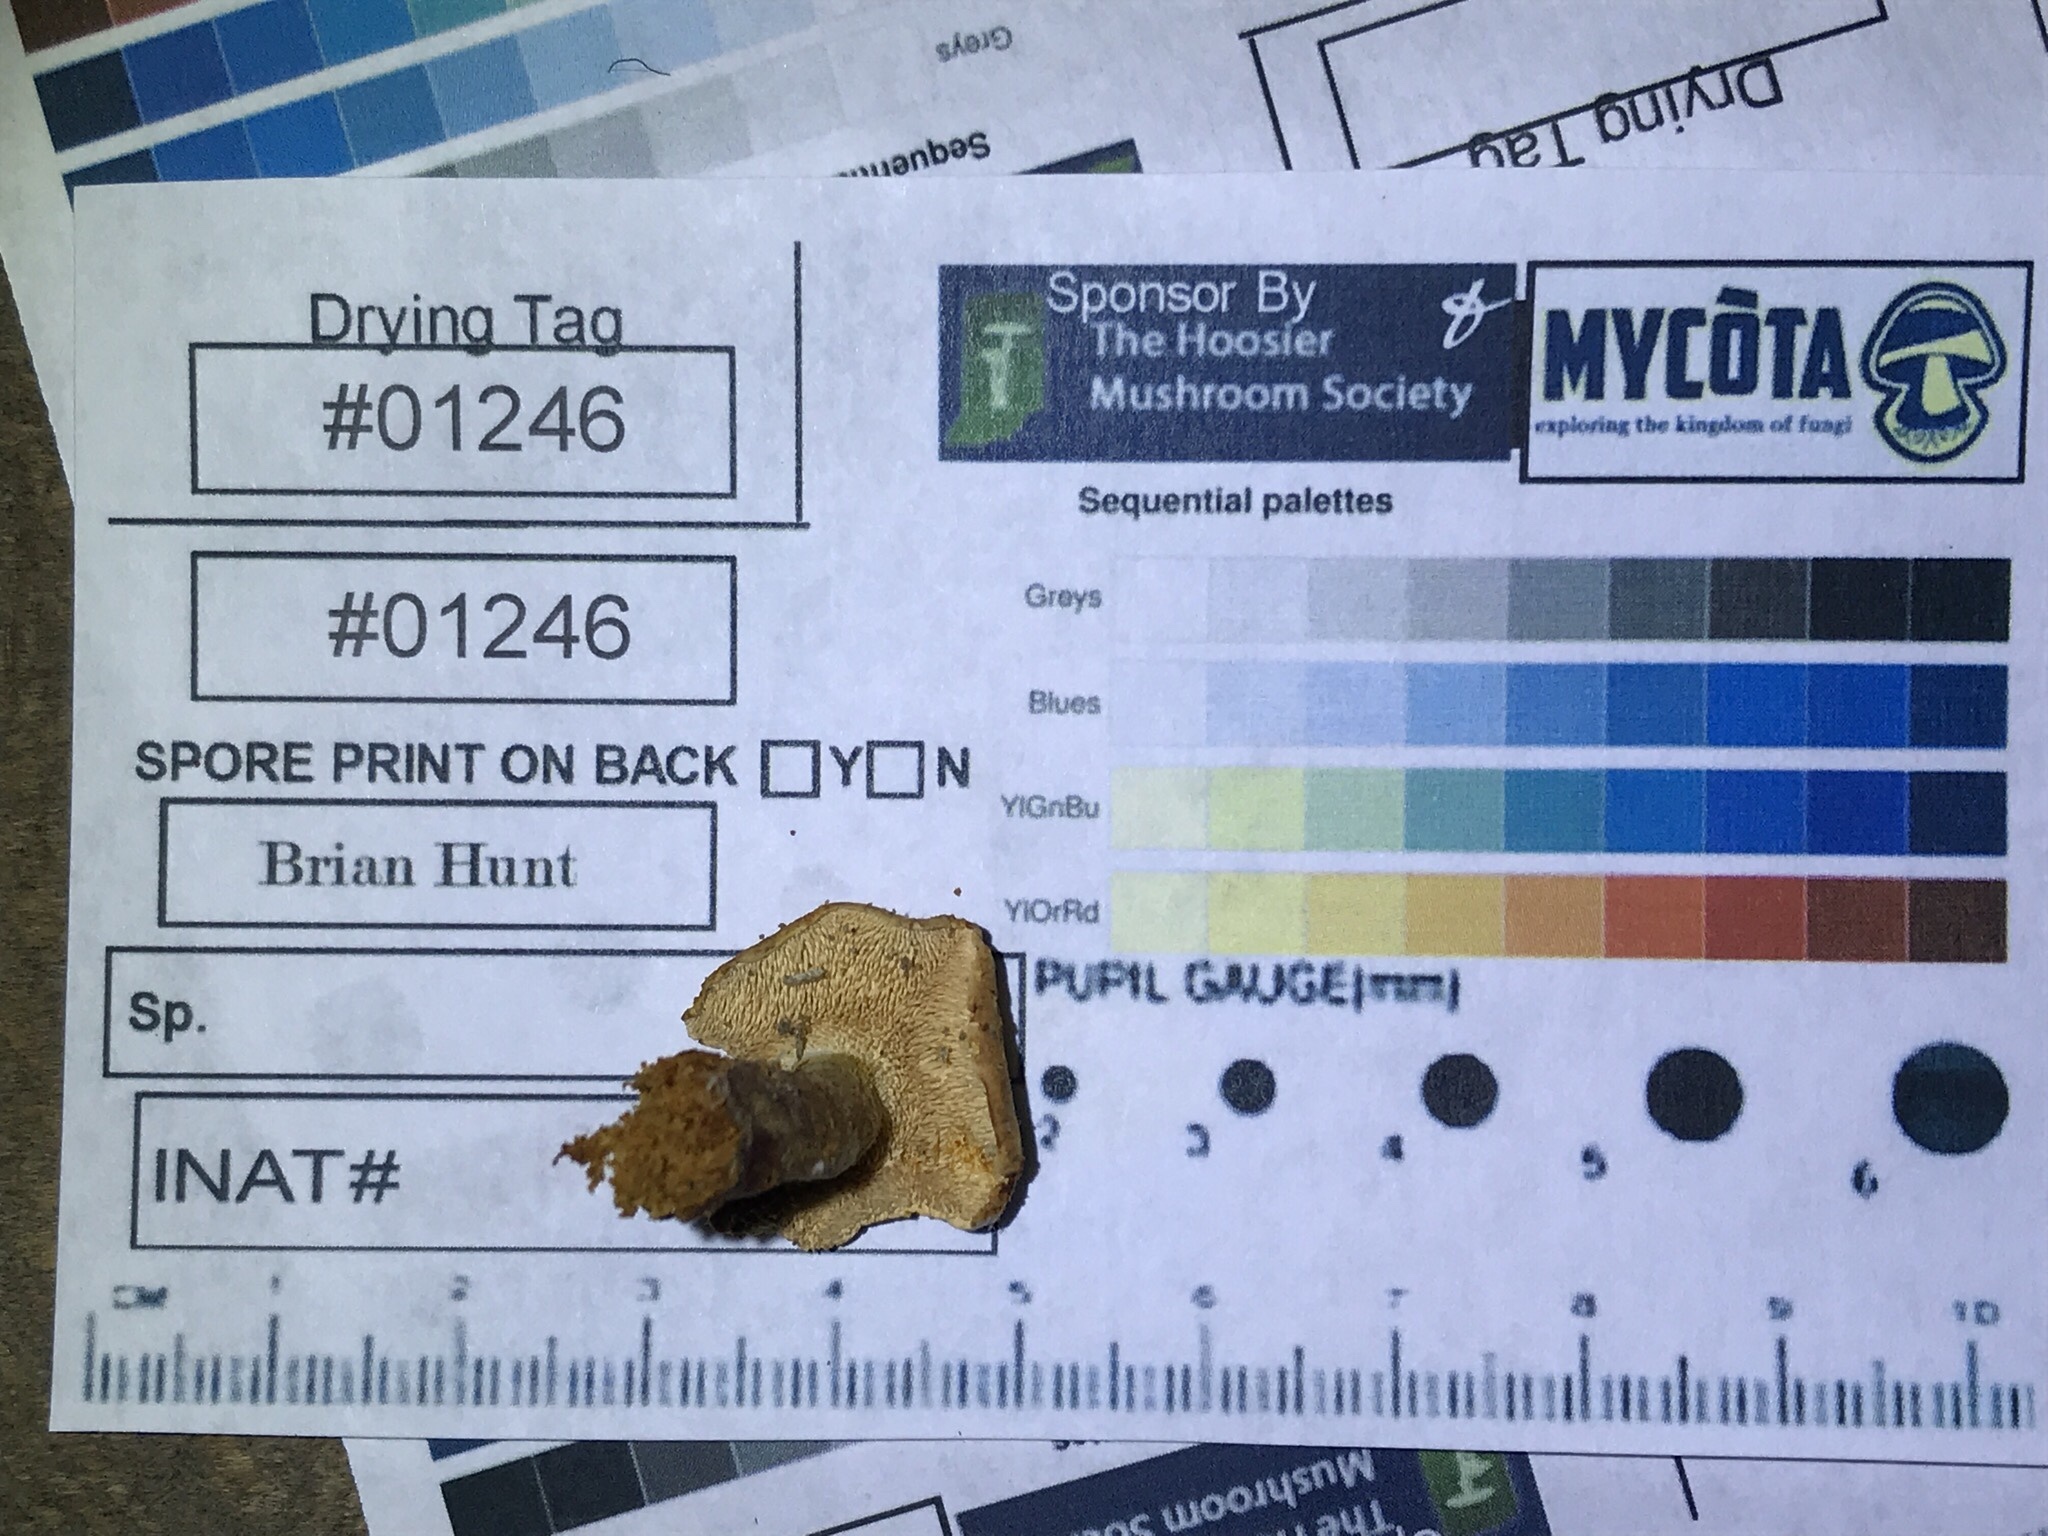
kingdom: Fungi
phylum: Basidiomycota
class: Agaricomycetes
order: Cantharellales
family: Hydnaceae
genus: Hydnum
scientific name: Hydnum aerostatisporum
